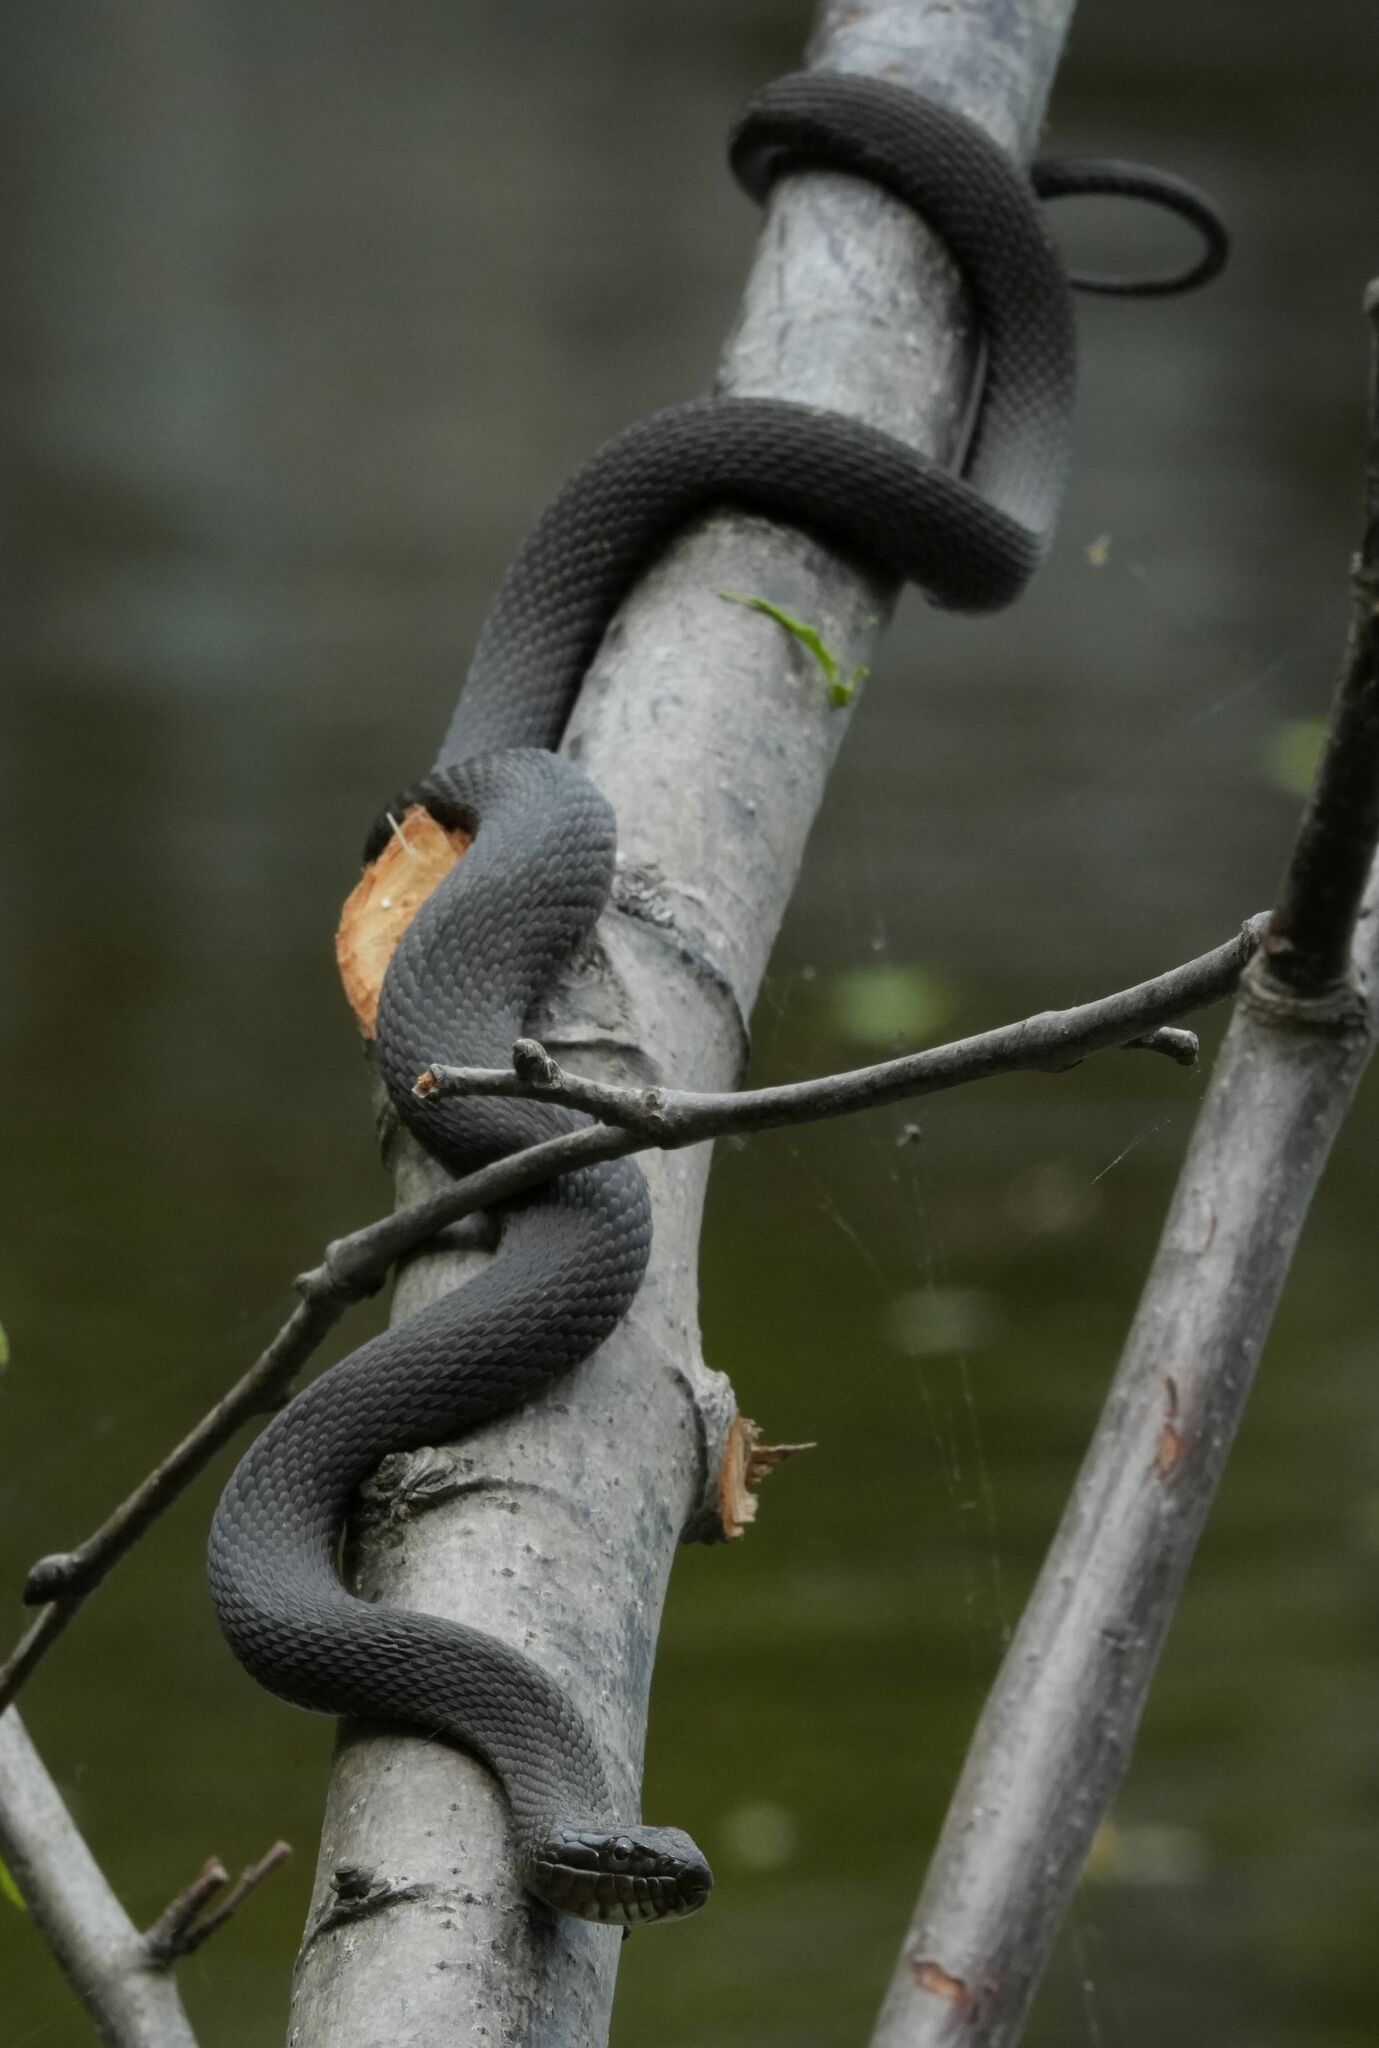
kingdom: Animalia
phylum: Chordata
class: Squamata
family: Colubridae
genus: Nerodia
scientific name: Nerodia sipedon
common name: Northern water snake
